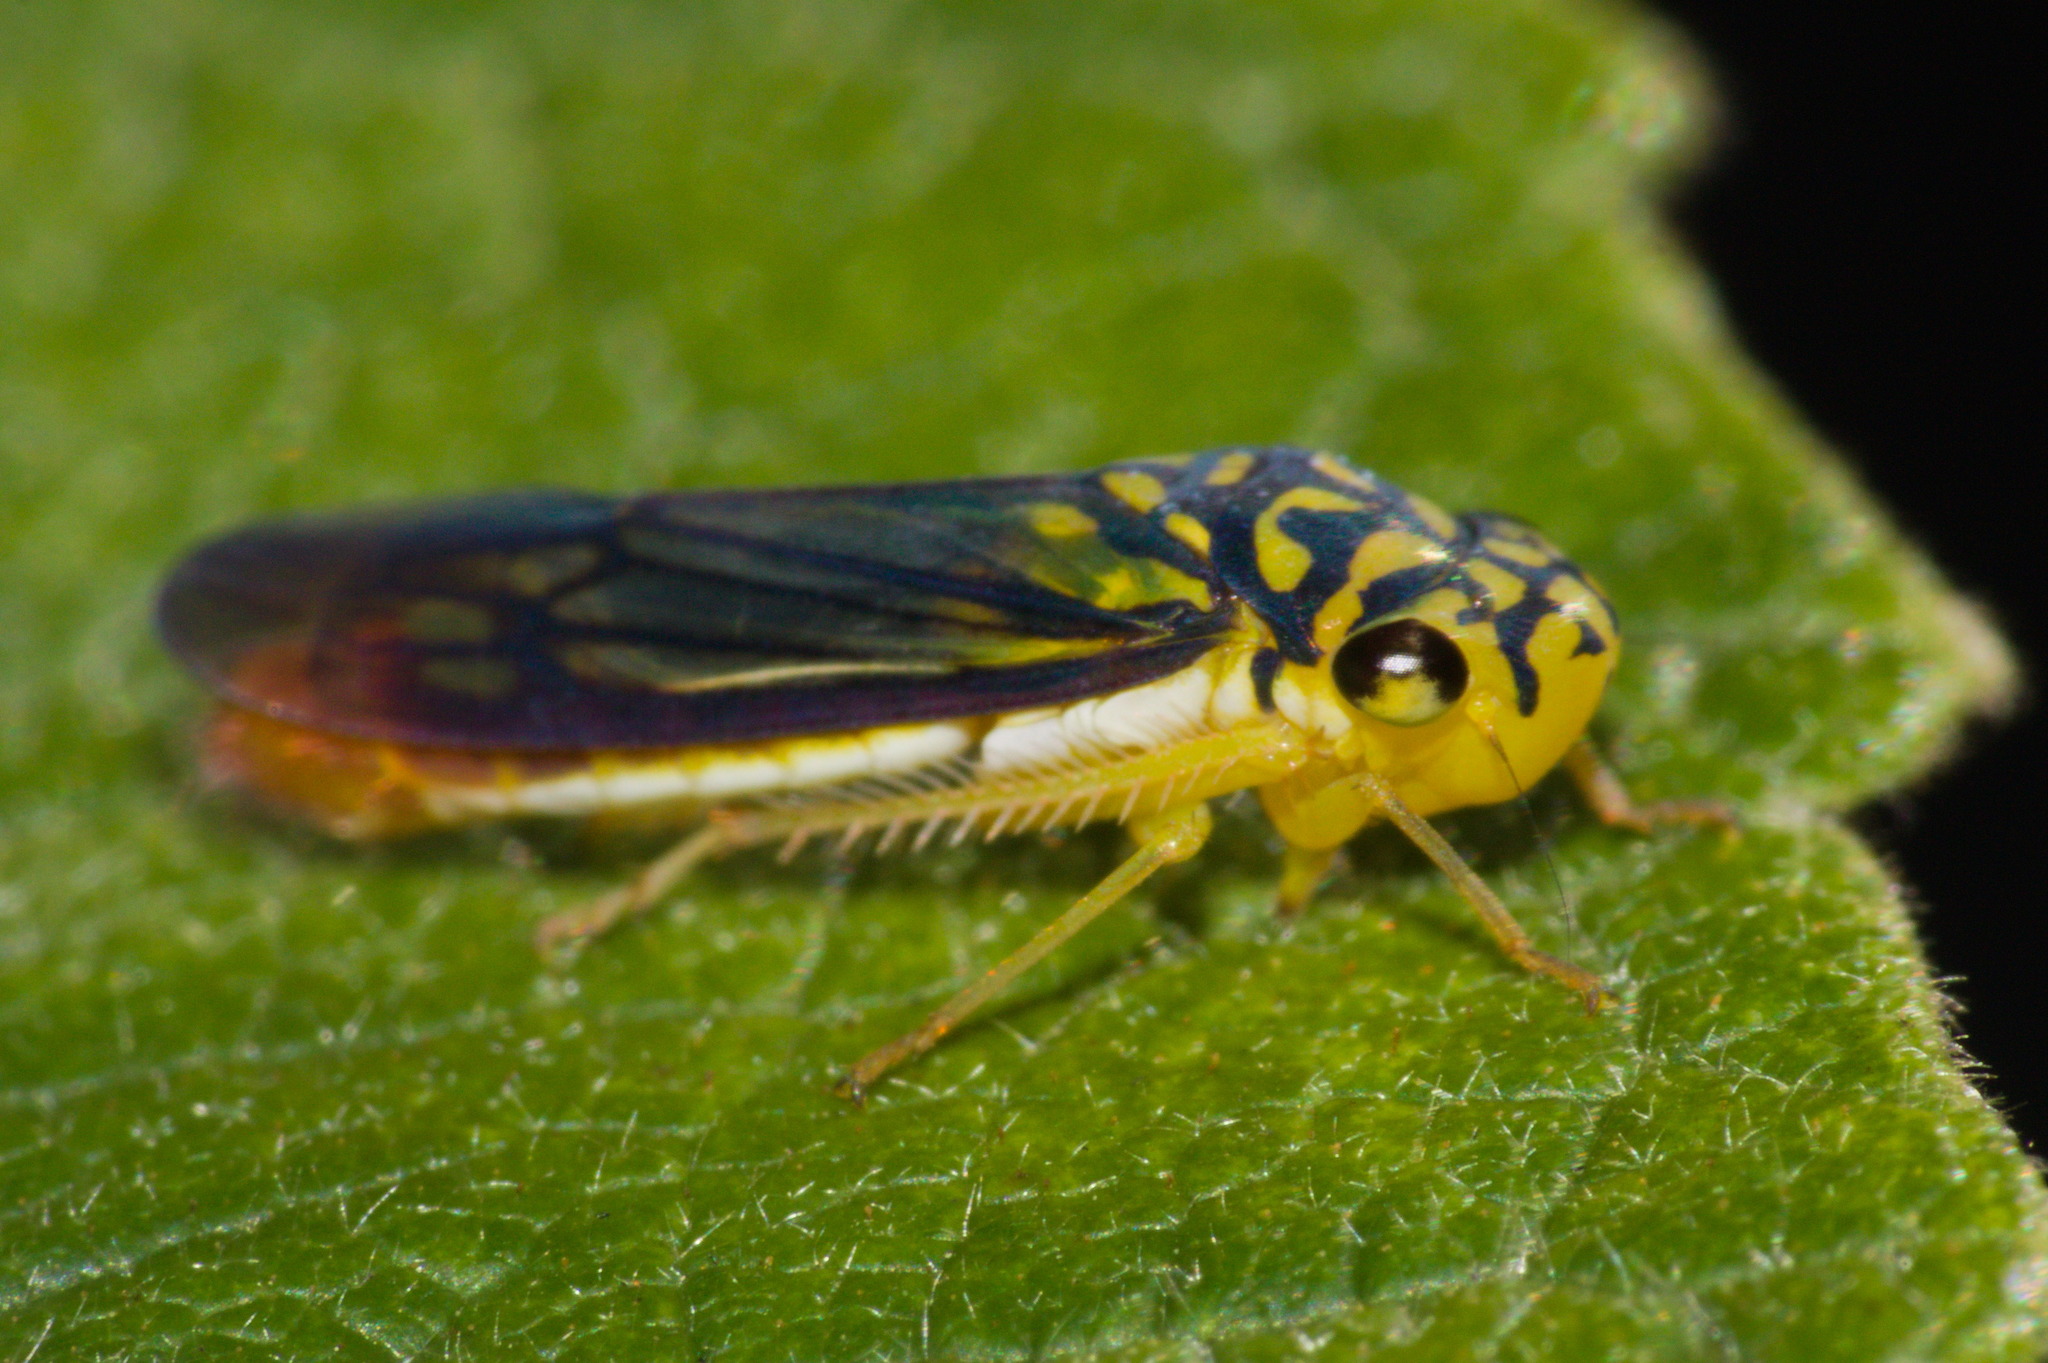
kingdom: Animalia
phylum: Arthropoda
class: Insecta
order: Hemiptera
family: Cicadellidae
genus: Dilobopterus
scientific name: Dilobopterus costalimai
